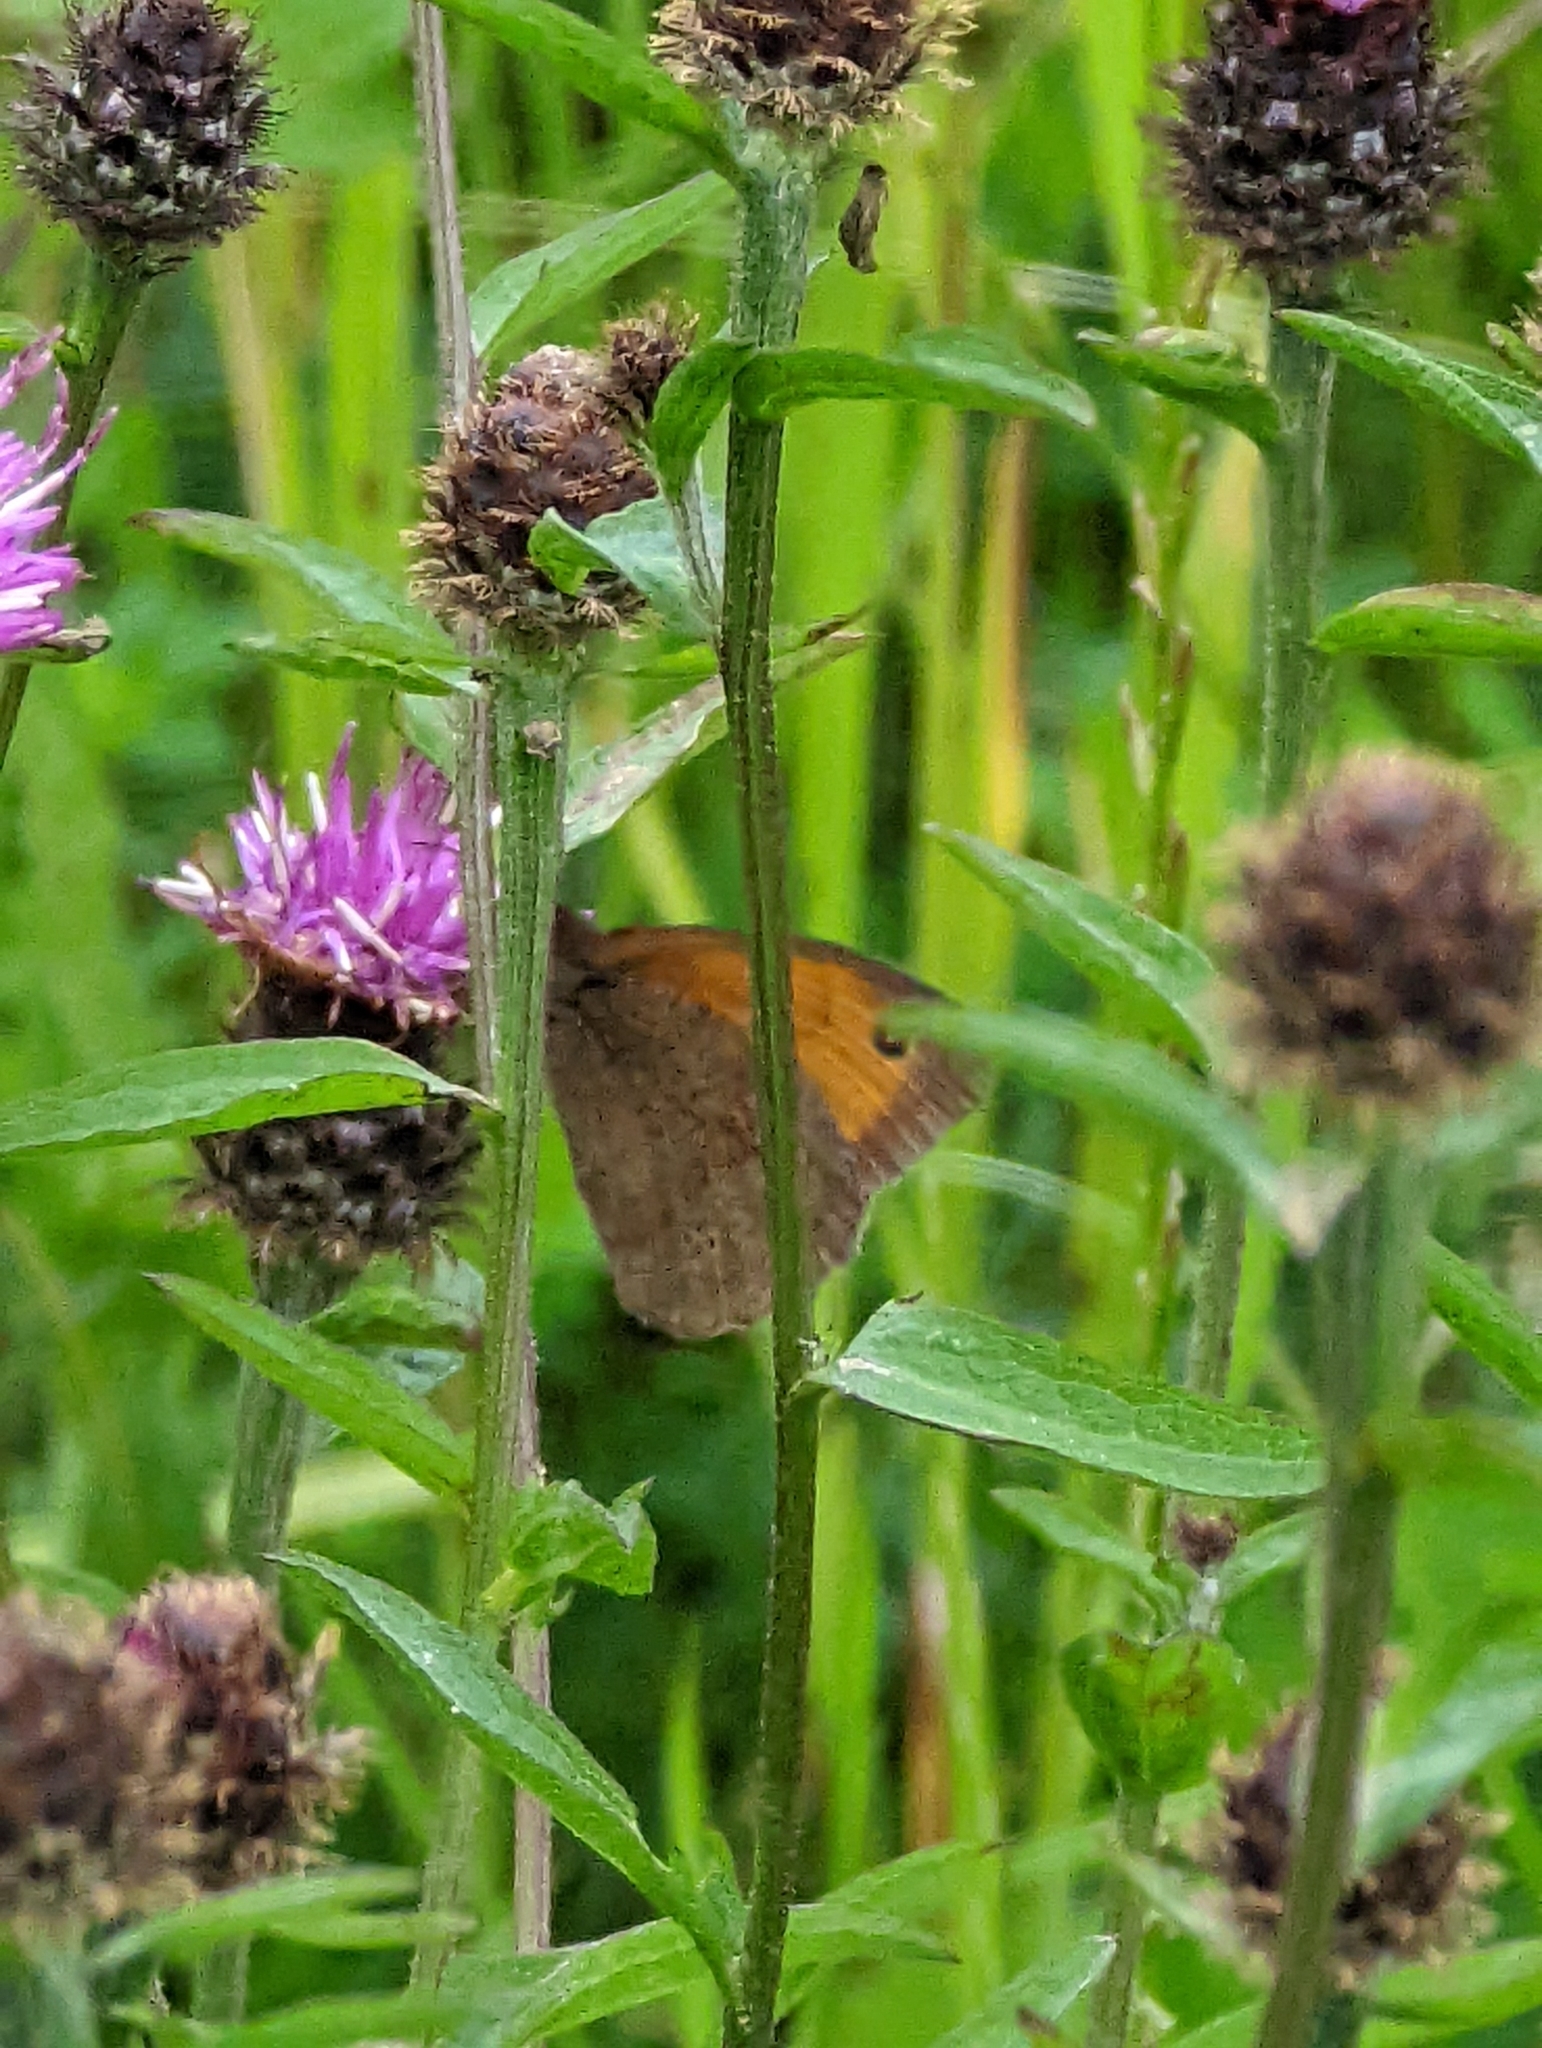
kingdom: Animalia
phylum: Arthropoda
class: Insecta
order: Lepidoptera
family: Nymphalidae
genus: Maniola
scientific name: Maniola jurtina
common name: Meadow brown
